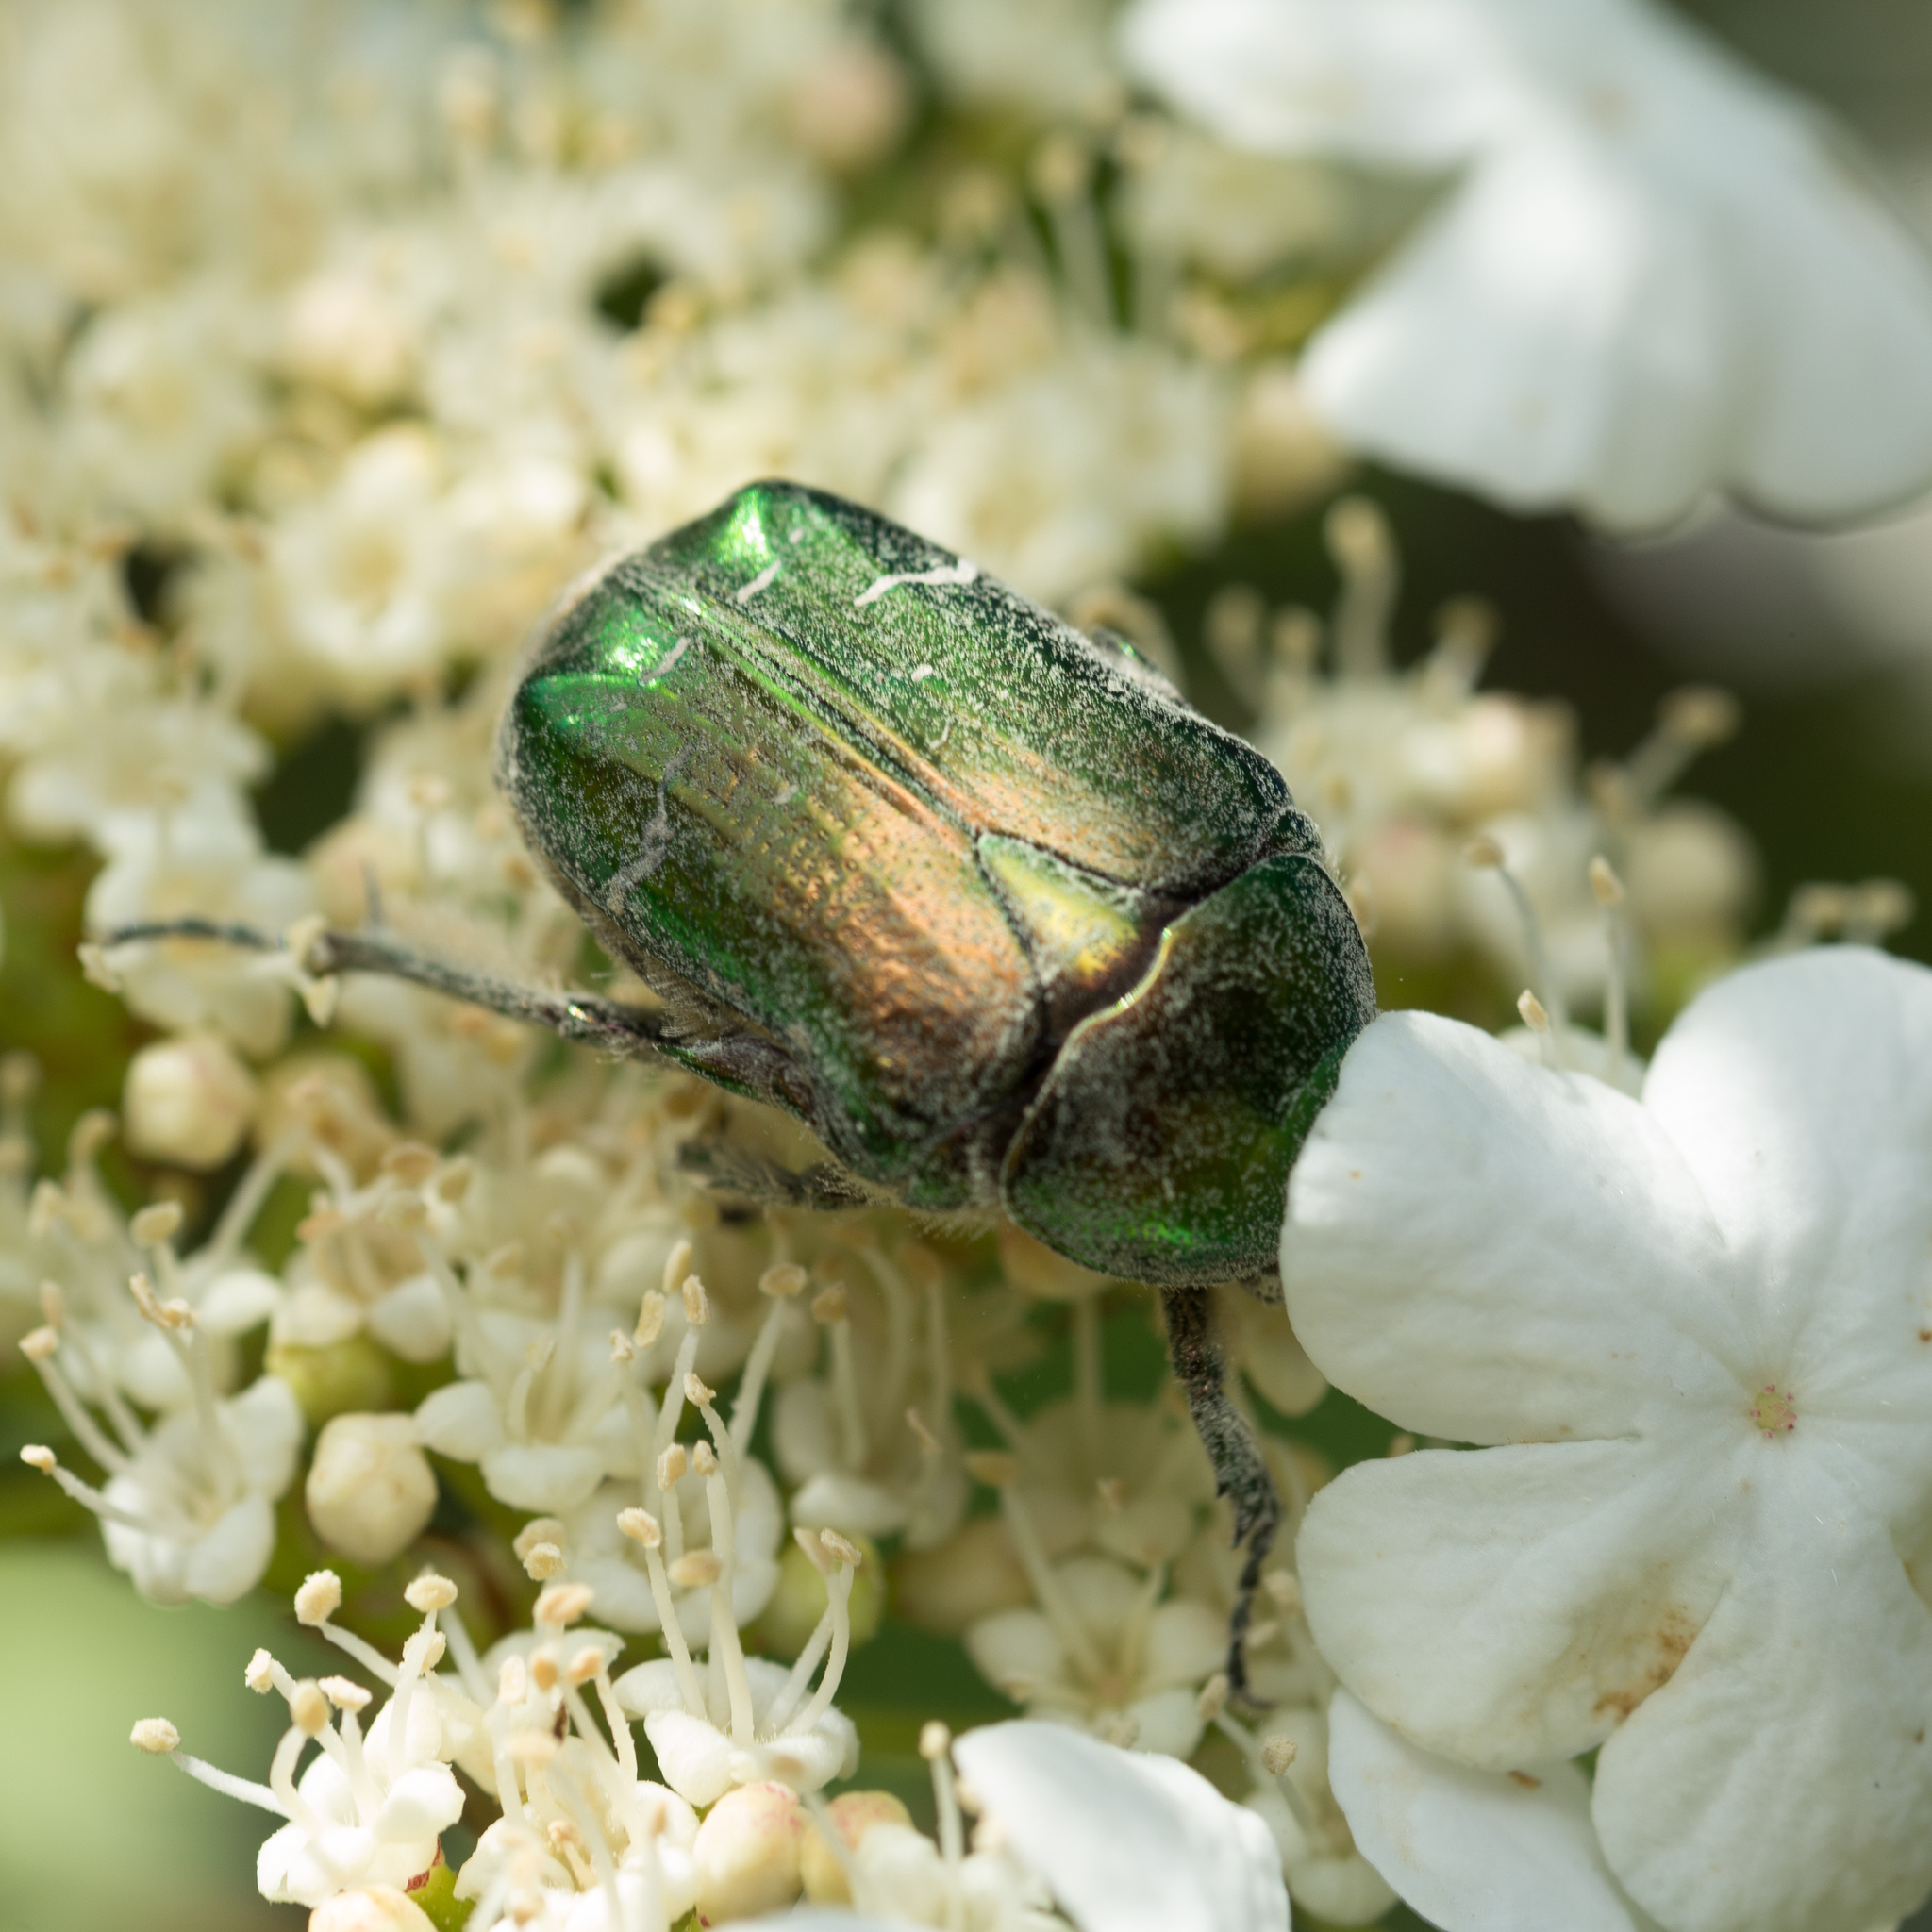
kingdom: Animalia
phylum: Arthropoda
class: Insecta
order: Coleoptera
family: Scarabaeidae
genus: Cetonia
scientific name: Cetonia aurata
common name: Rose chafer
